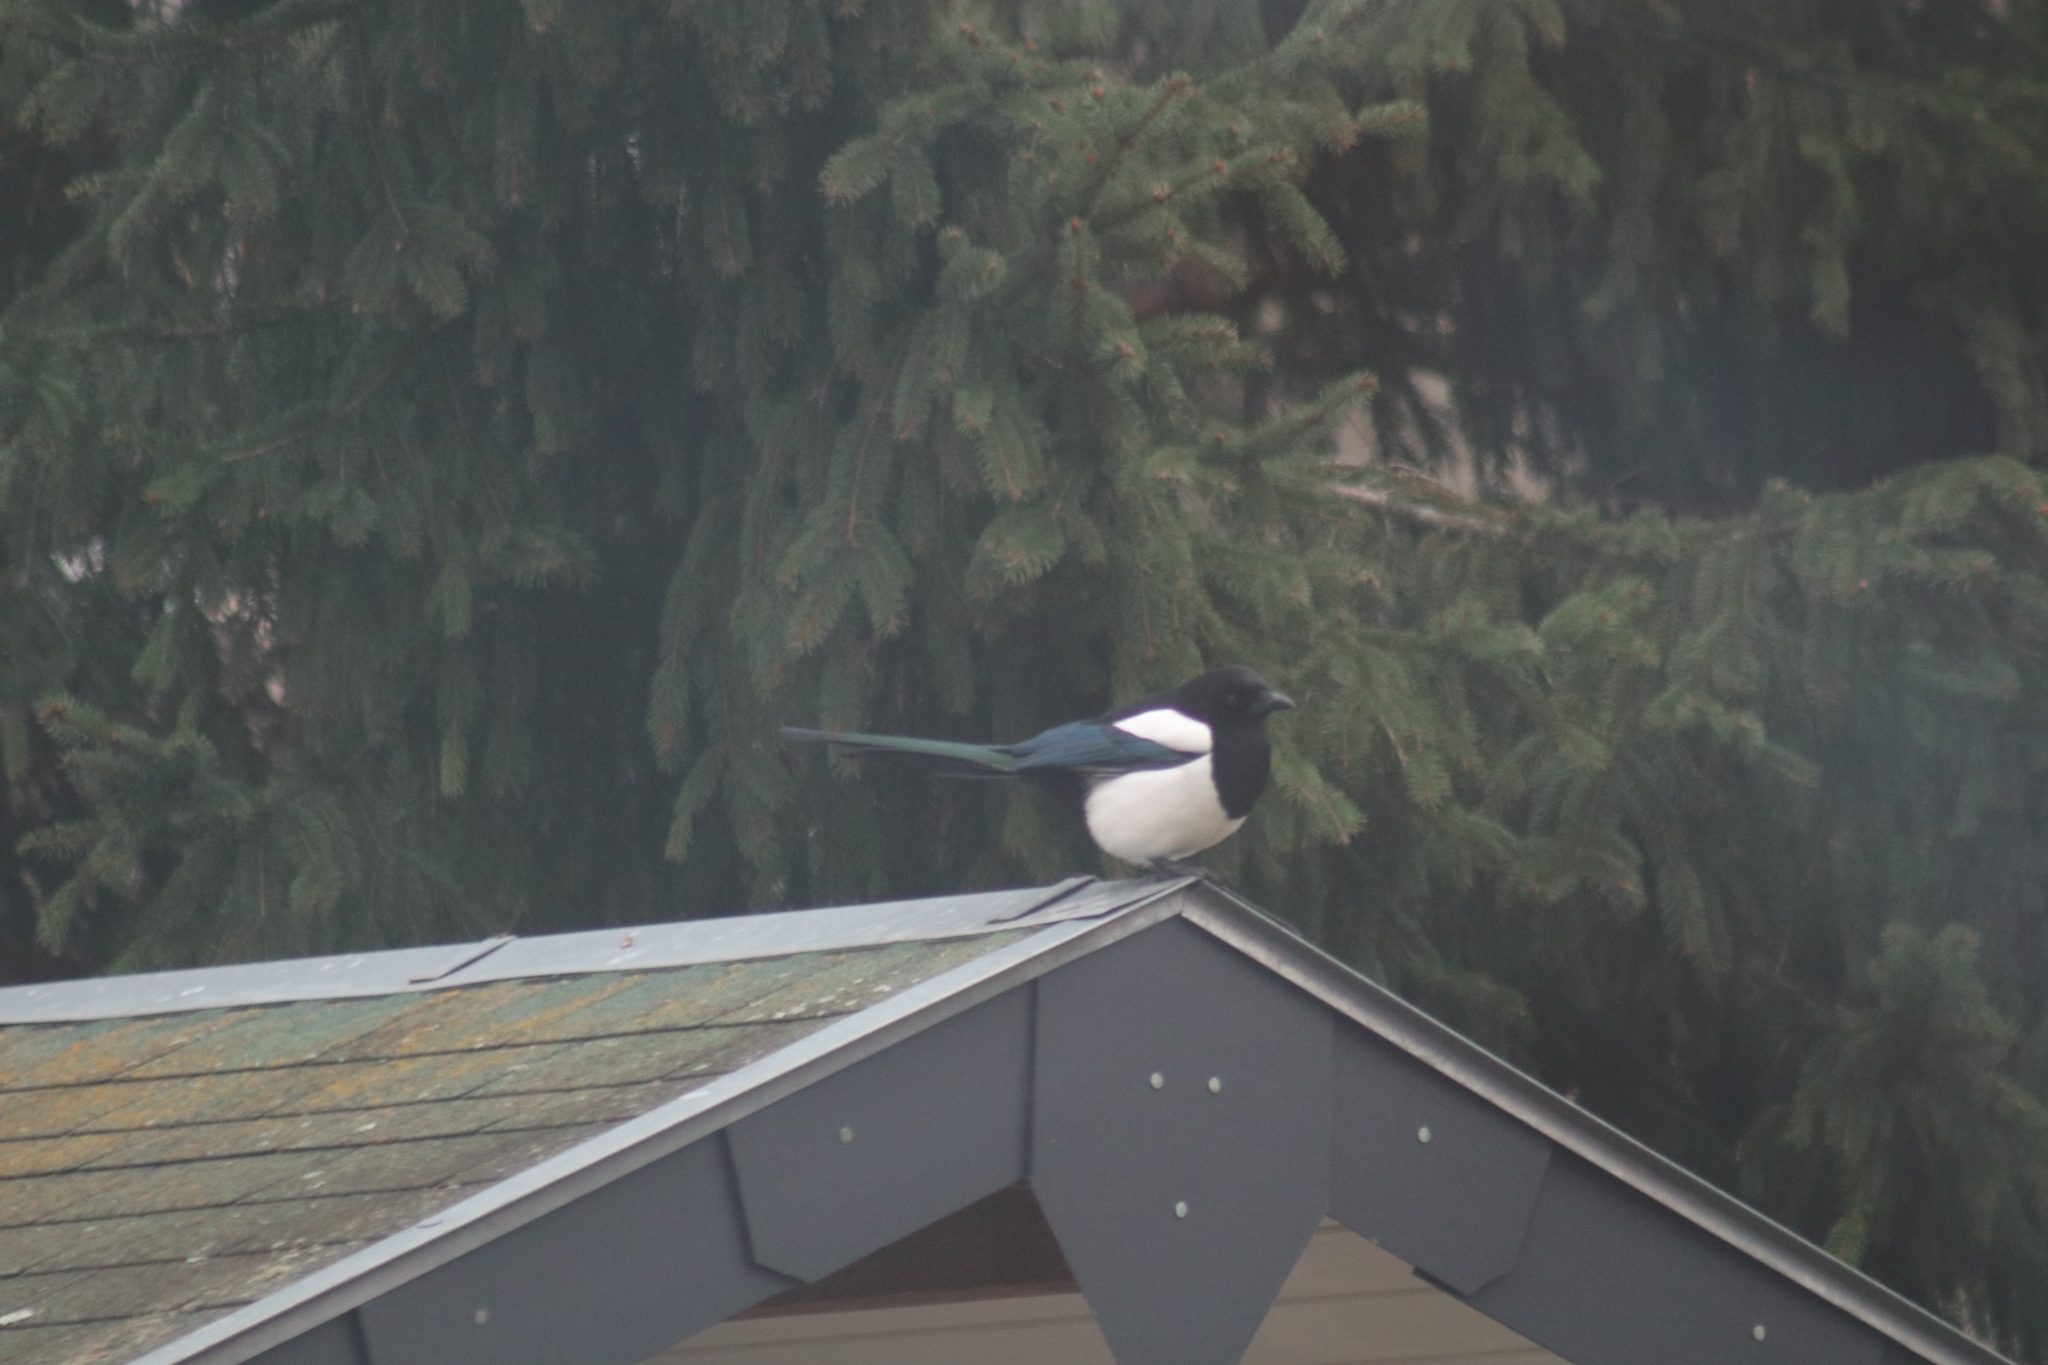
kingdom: Animalia
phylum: Chordata
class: Aves
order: Passeriformes
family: Corvidae
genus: Pica
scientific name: Pica pica
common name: Eurasian magpie
